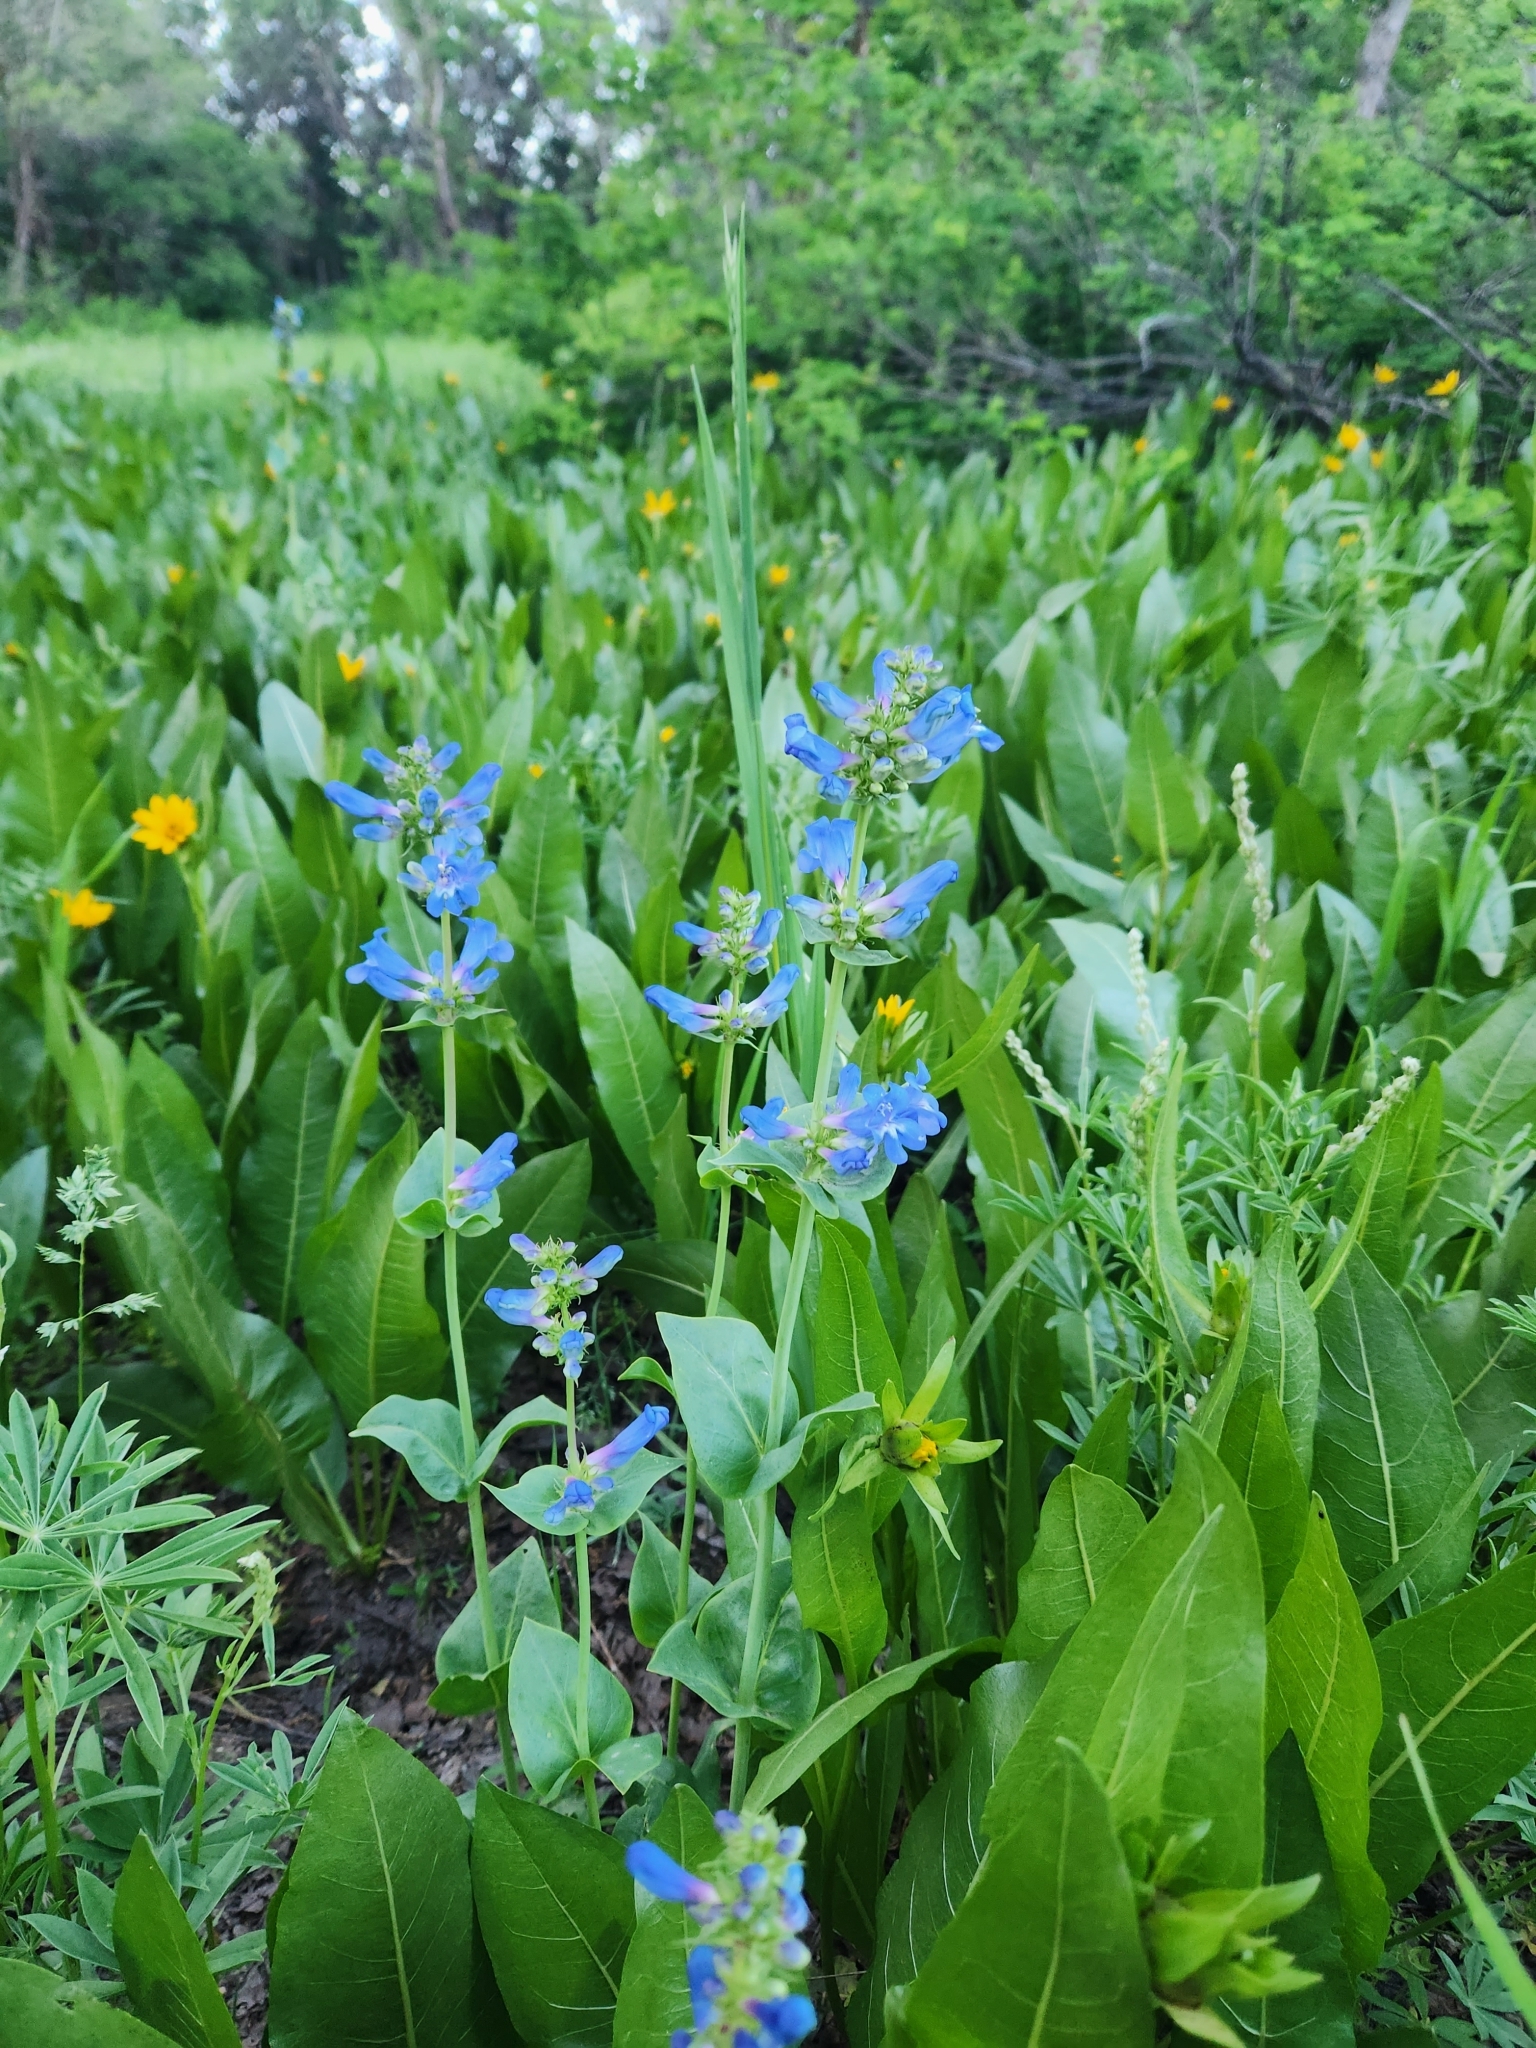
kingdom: Plantae
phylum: Tracheophyta
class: Magnoliopsida
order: Lamiales
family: Plantaginaceae
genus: Penstemon
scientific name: Penstemon cyananthus
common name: Wasatch penstemon
